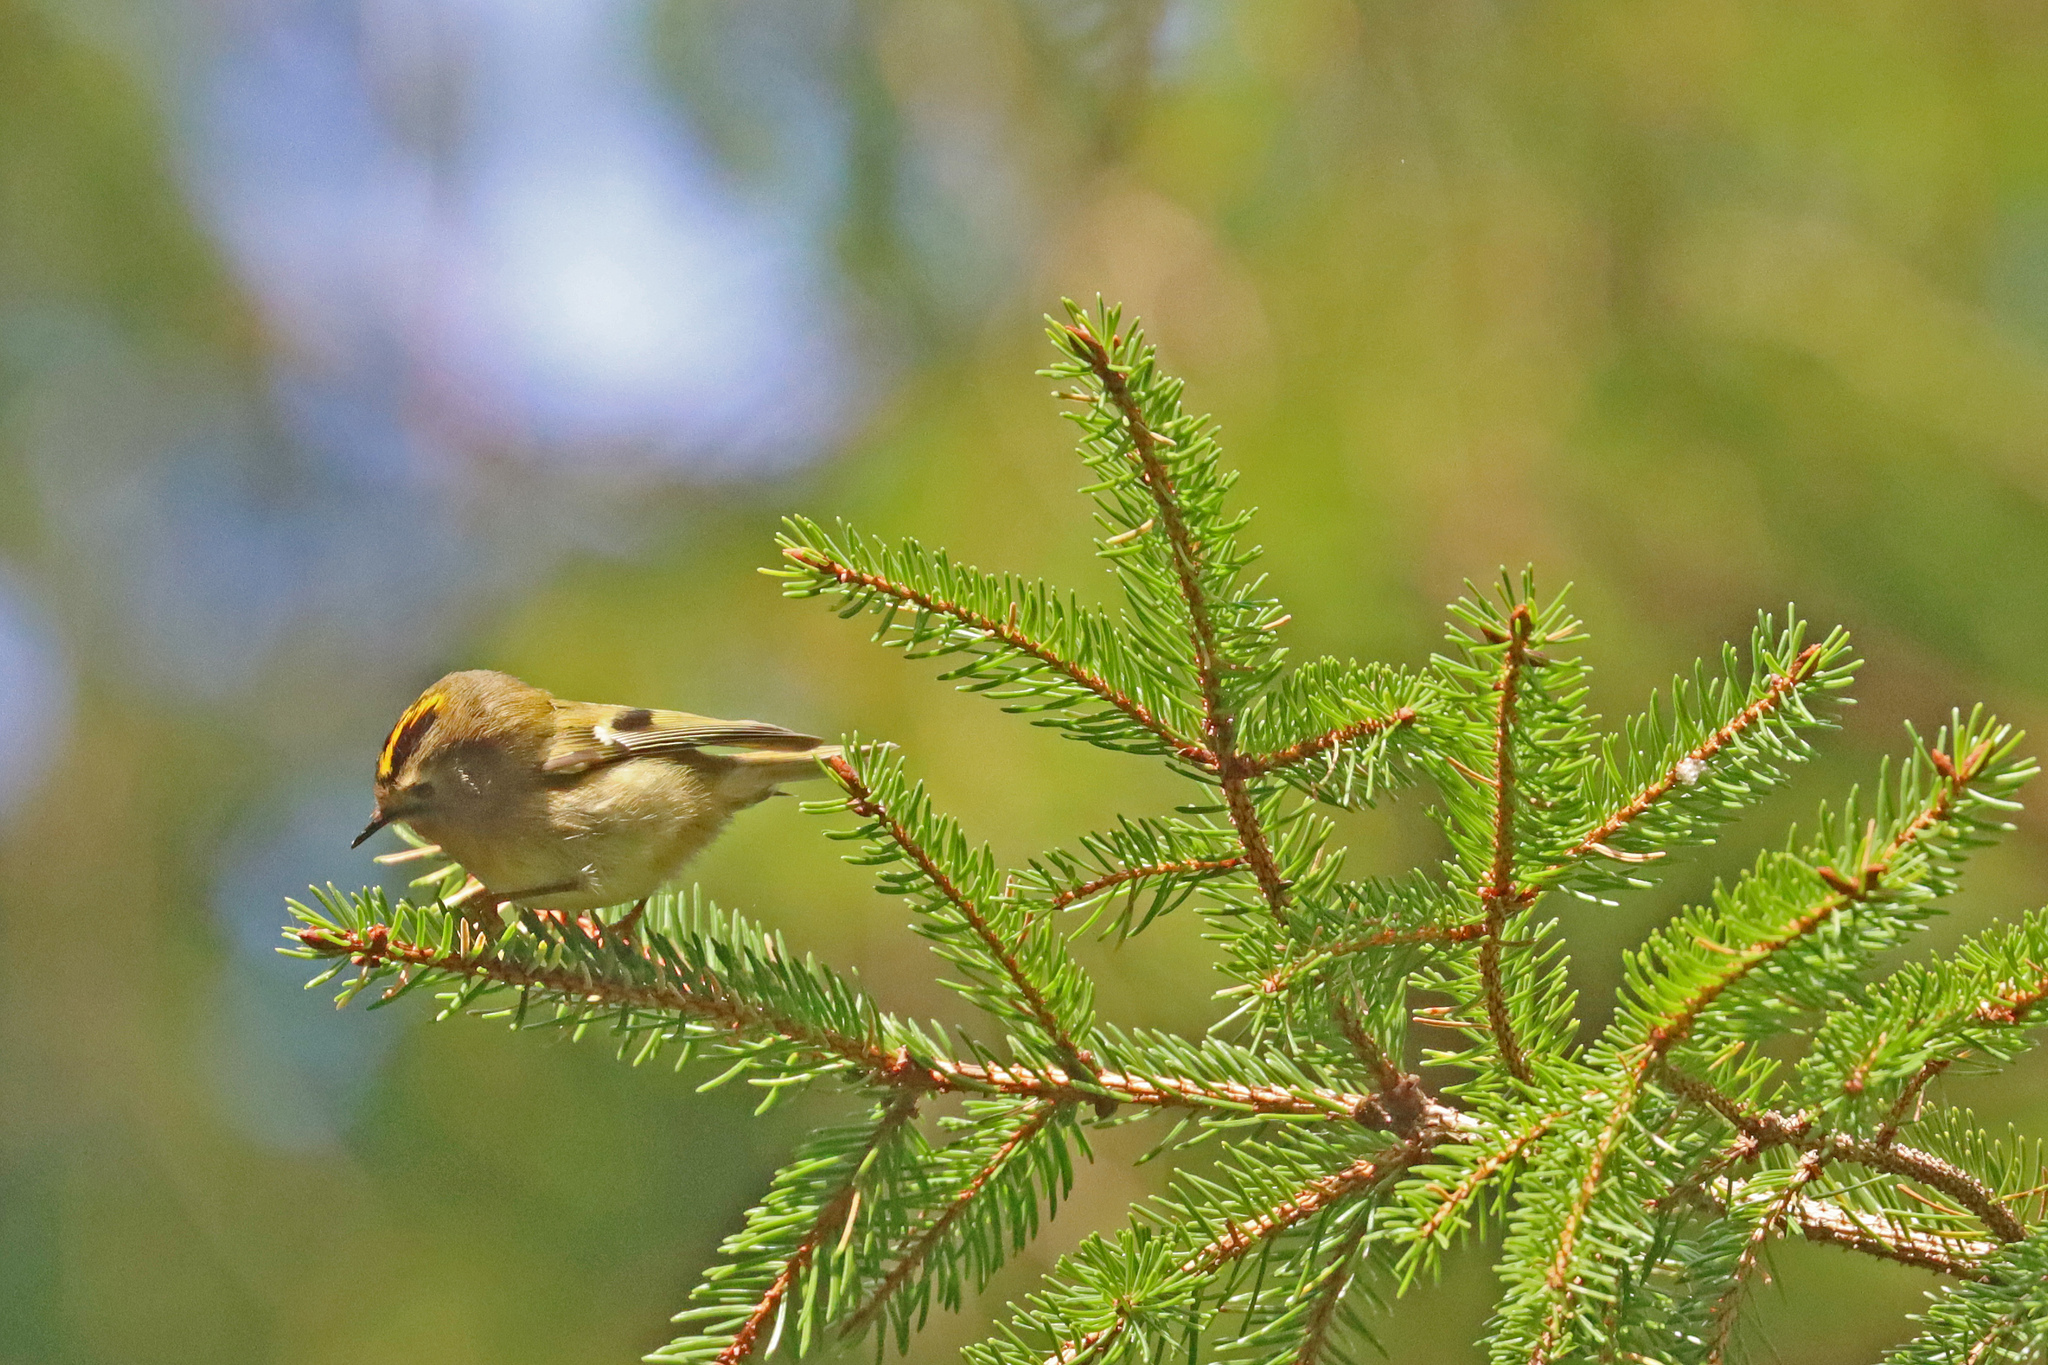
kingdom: Animalia
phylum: Chordata
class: Aves
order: Passeriformes
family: Regulidae
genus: Regulus
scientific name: Regulus regulus
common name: Goldcrest
